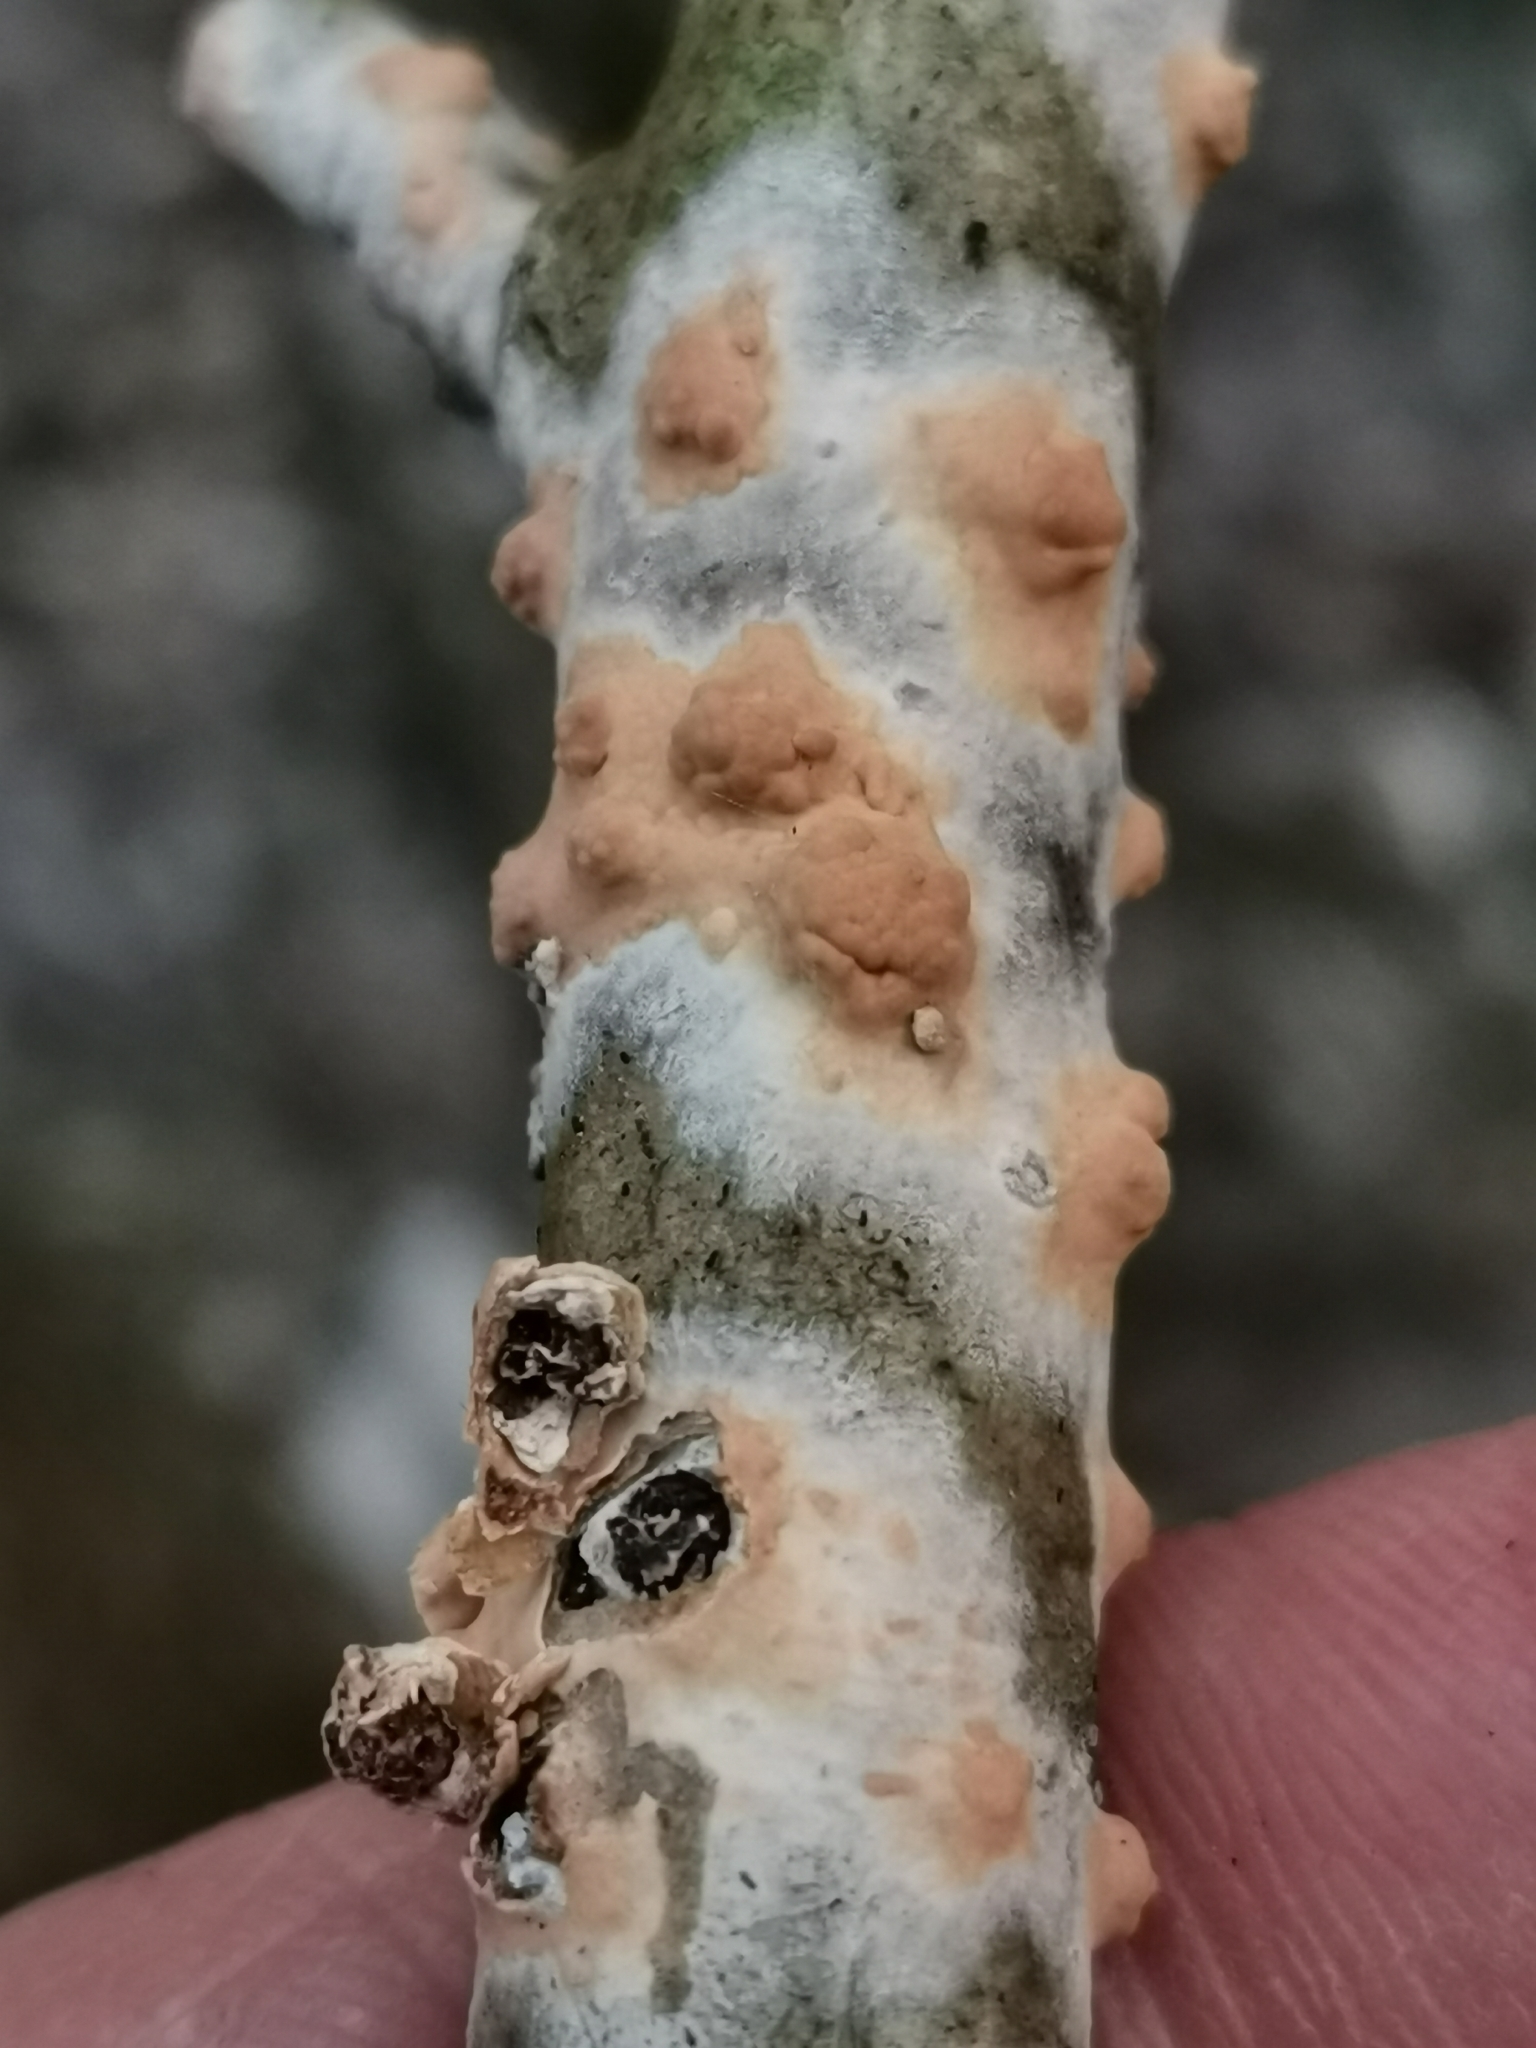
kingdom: Fungi
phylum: Basidiomycota
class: Agaricomycetes
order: Russulales
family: Peniophoraceae
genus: Peniophora
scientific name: Peniophora incarnata
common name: Rosy crust
